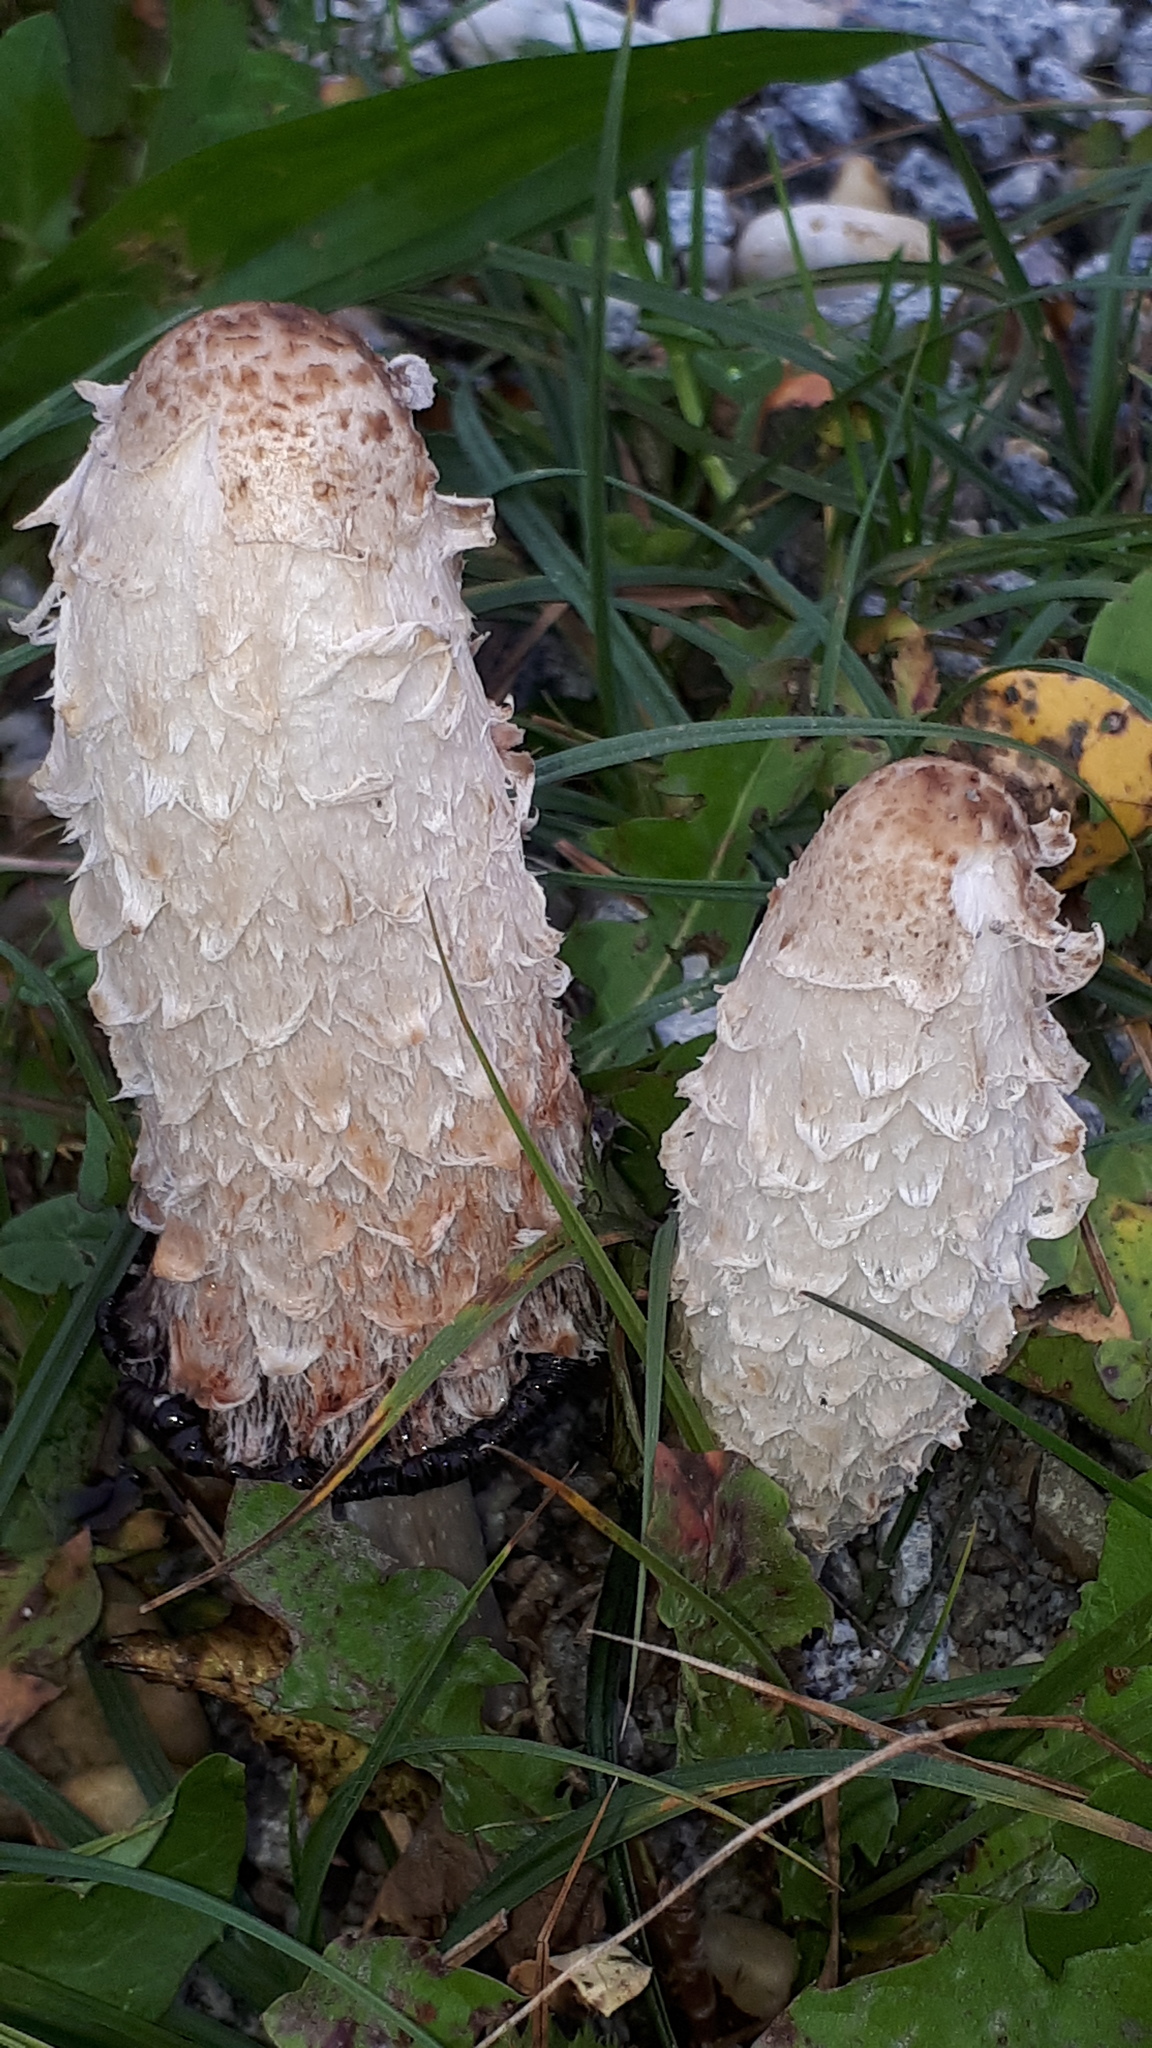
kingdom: Fungi
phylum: Basidiomycota
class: Agaricomycetes
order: Agaricales
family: Agaricaceae
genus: Coprinus
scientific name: Coprinus comatus
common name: Lawyer's wig
